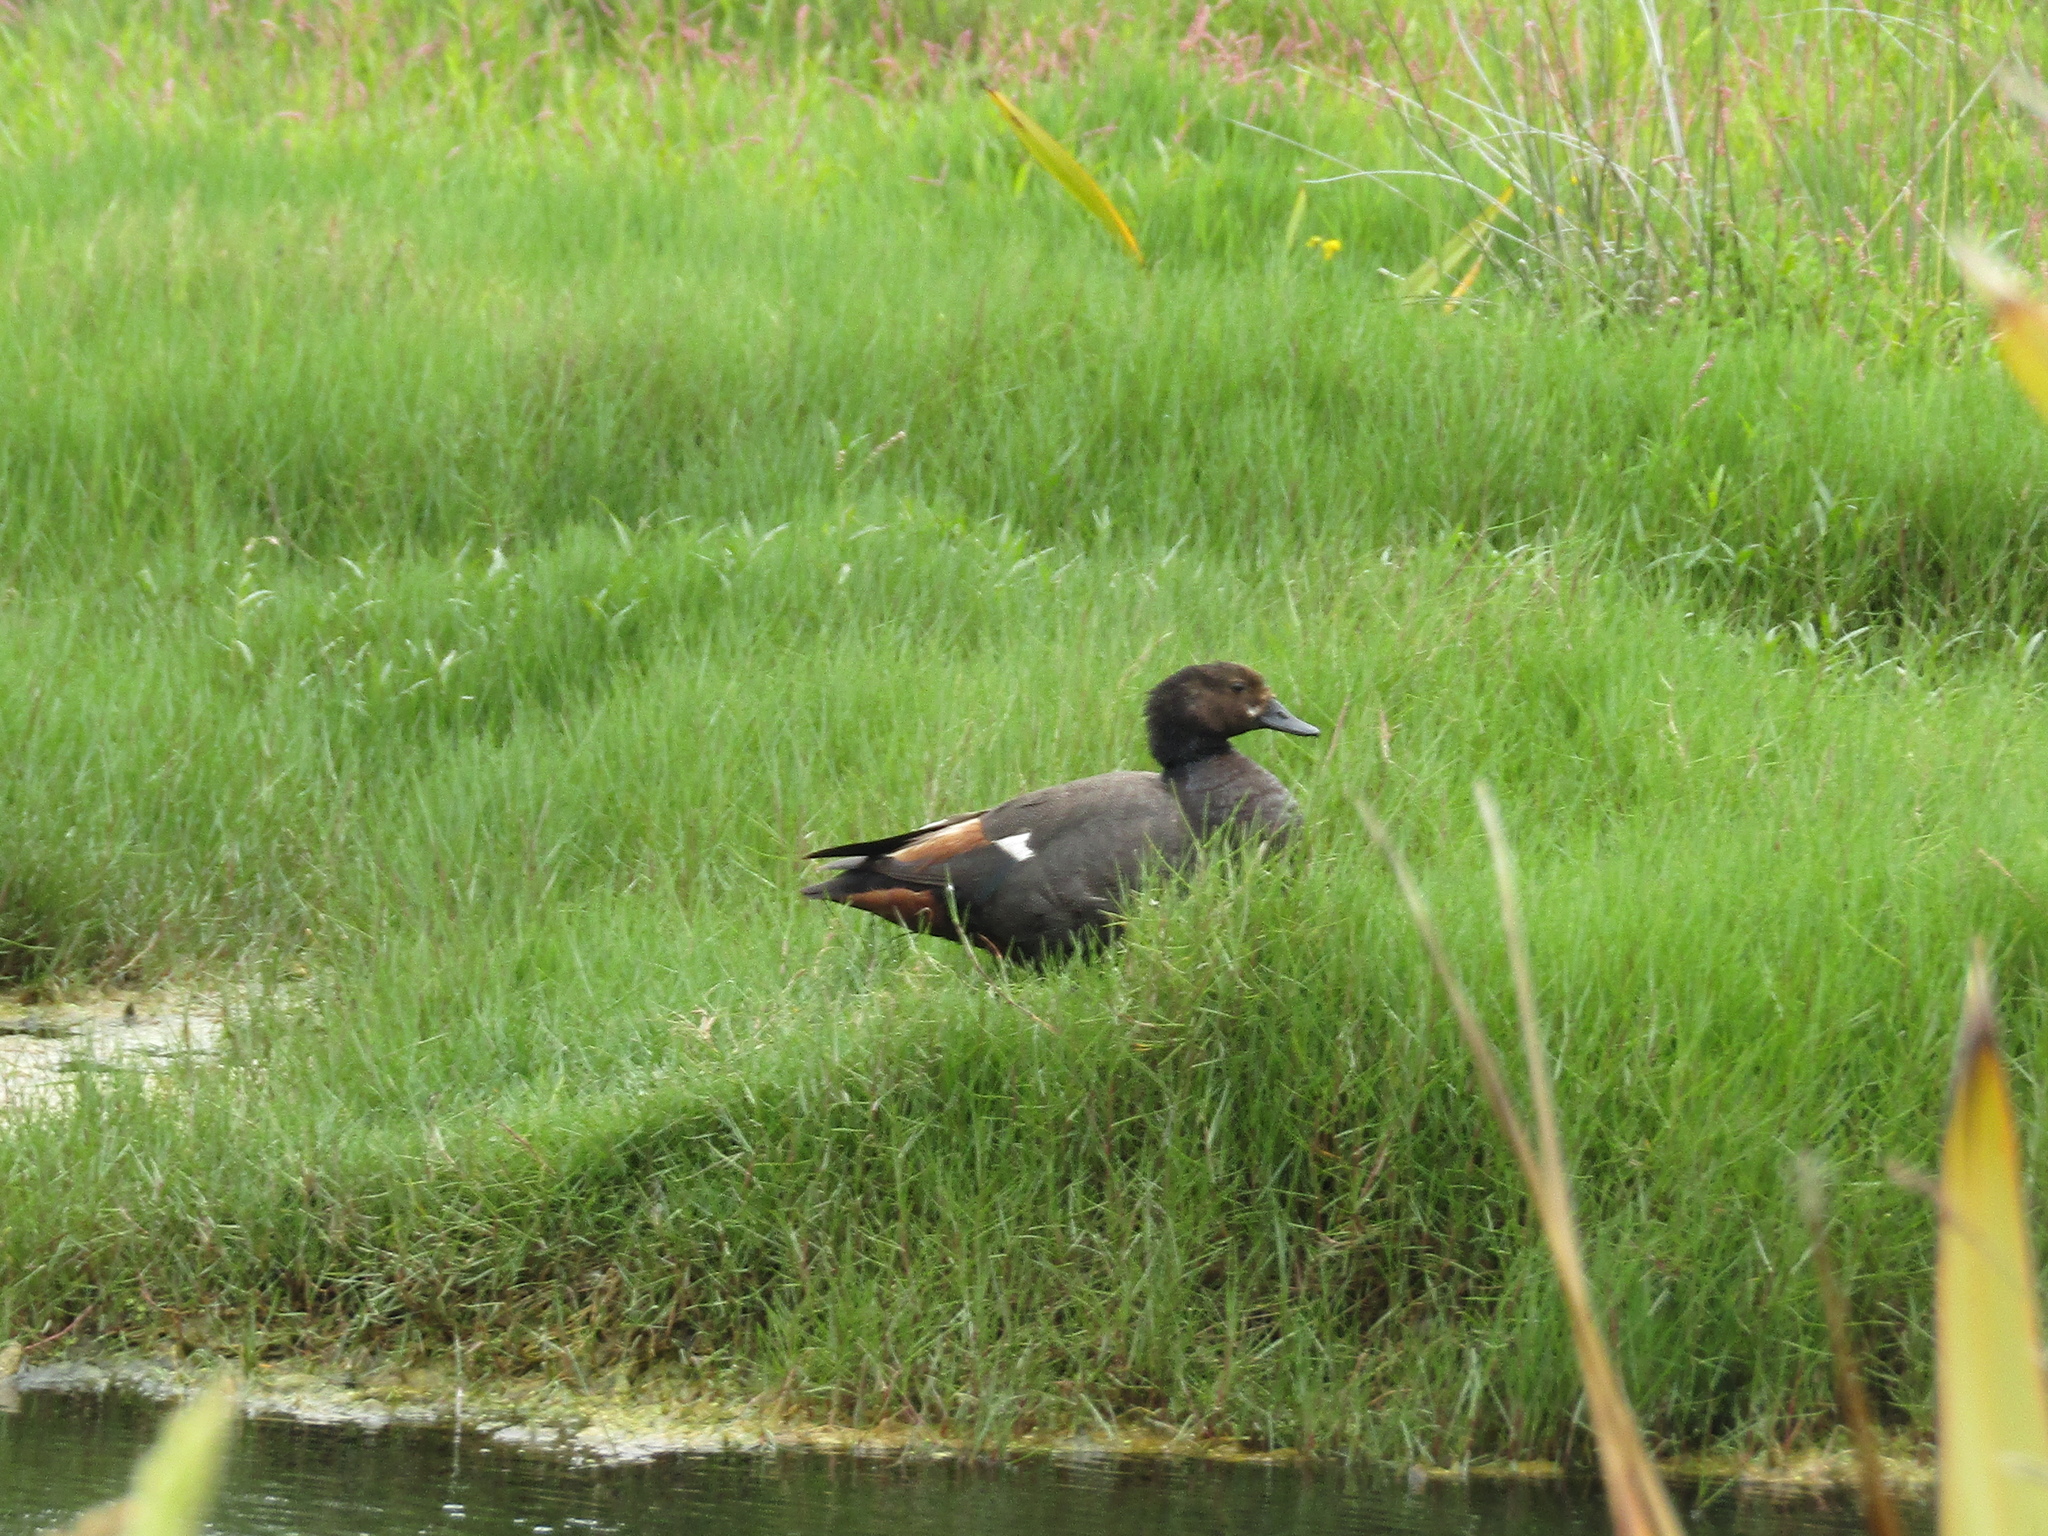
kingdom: Animalia
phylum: Chordata
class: Aves
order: Anseriformes
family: Anatidae
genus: Tadorna
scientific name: Tadorna variegata
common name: Paradise shelduck
